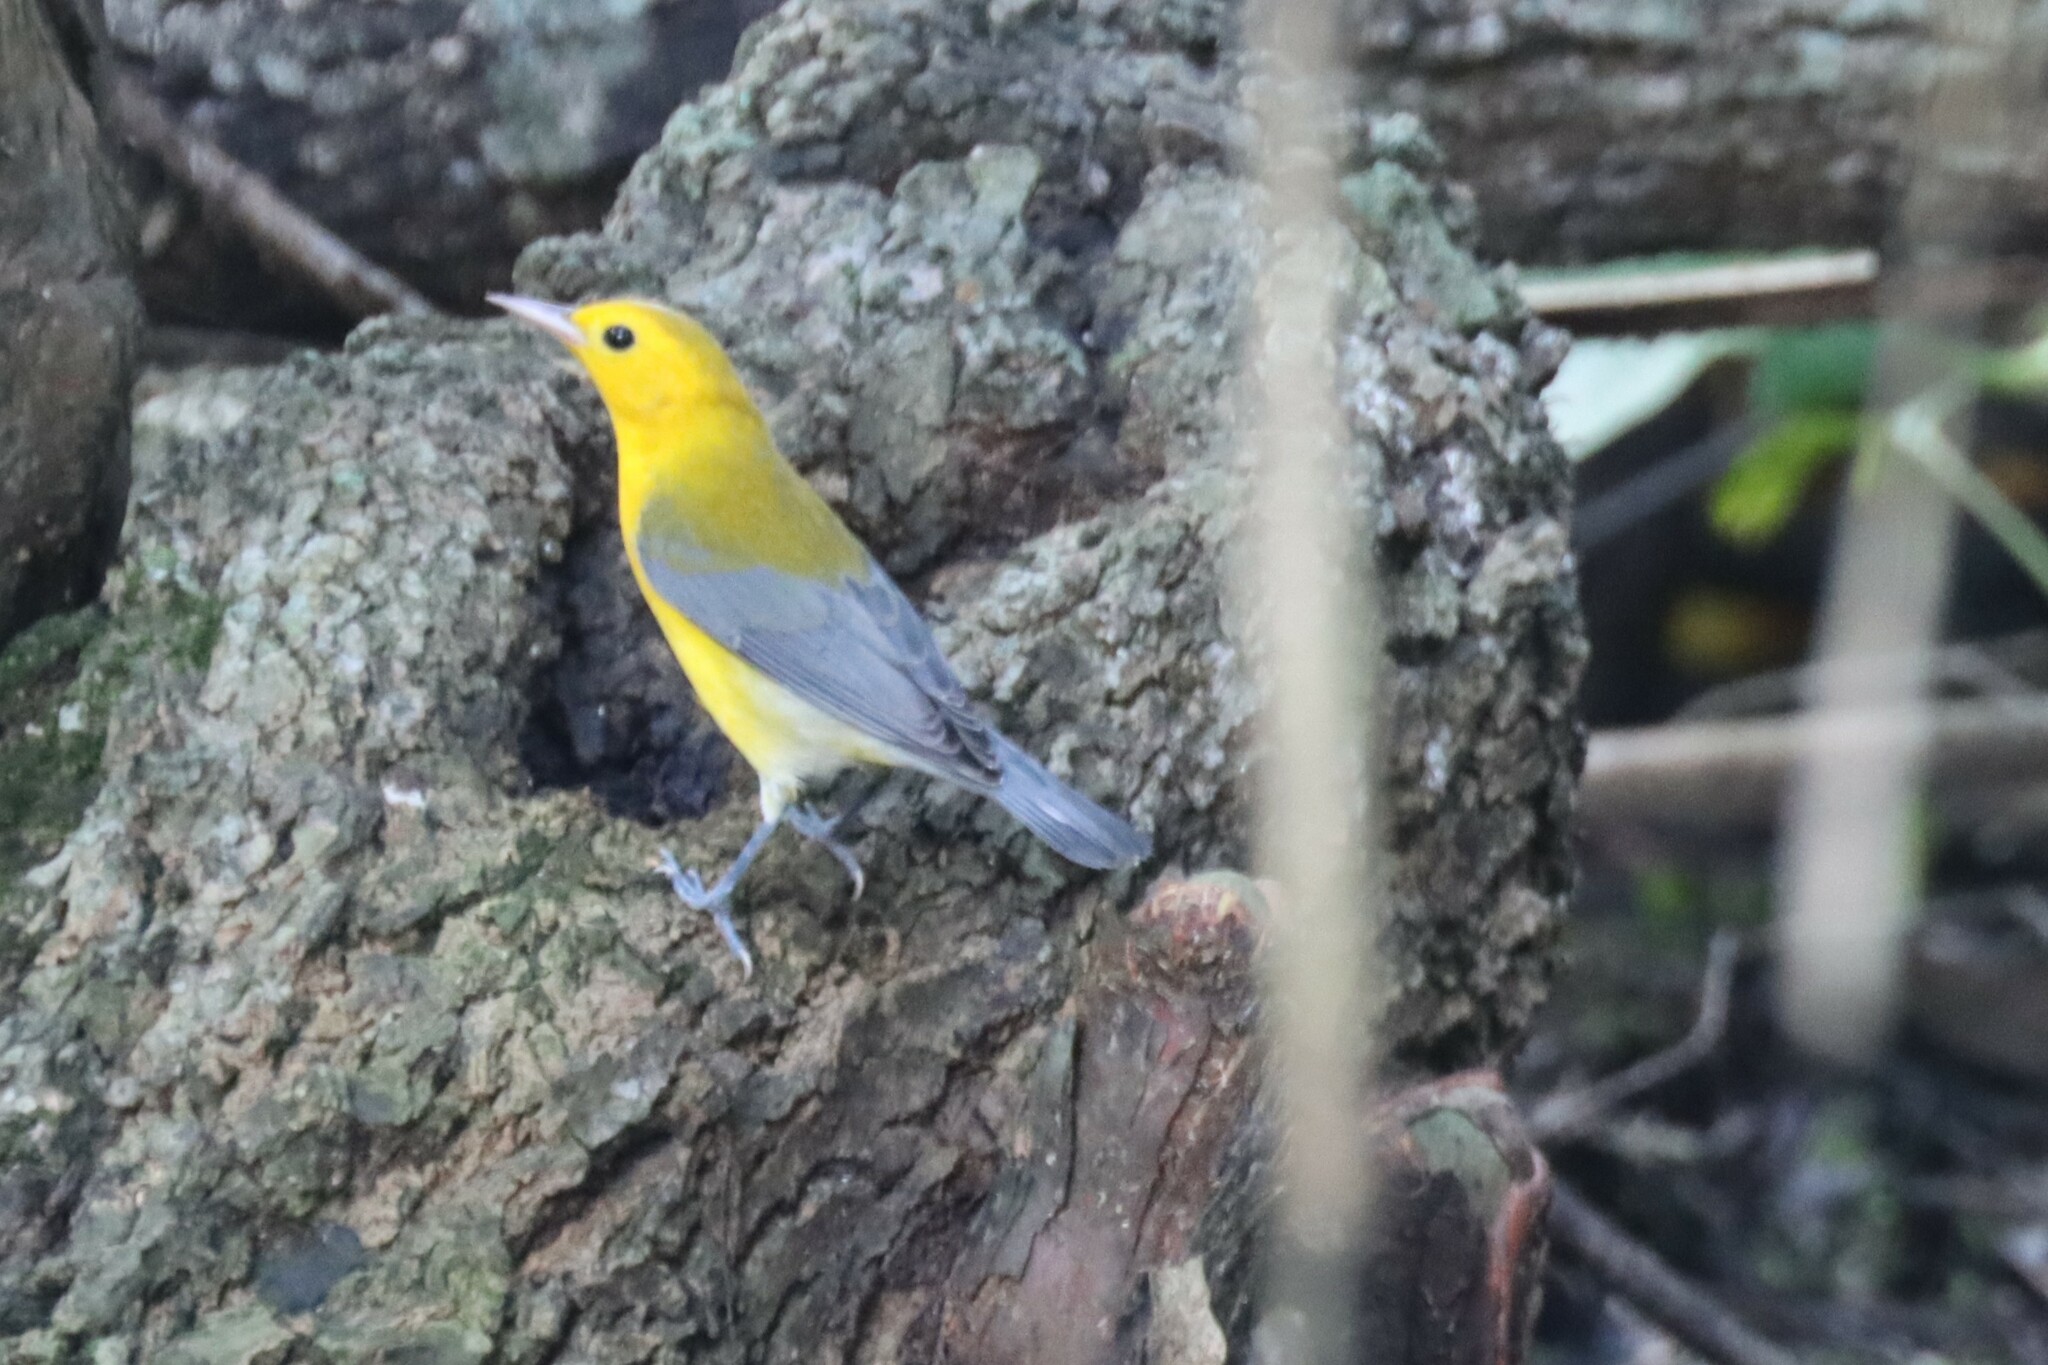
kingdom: Animalia
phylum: Chordata
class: Aves
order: Passeriformes
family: Parulidae
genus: Protonotaria
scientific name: Protonotaria citrea
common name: Prothonotary warbler
